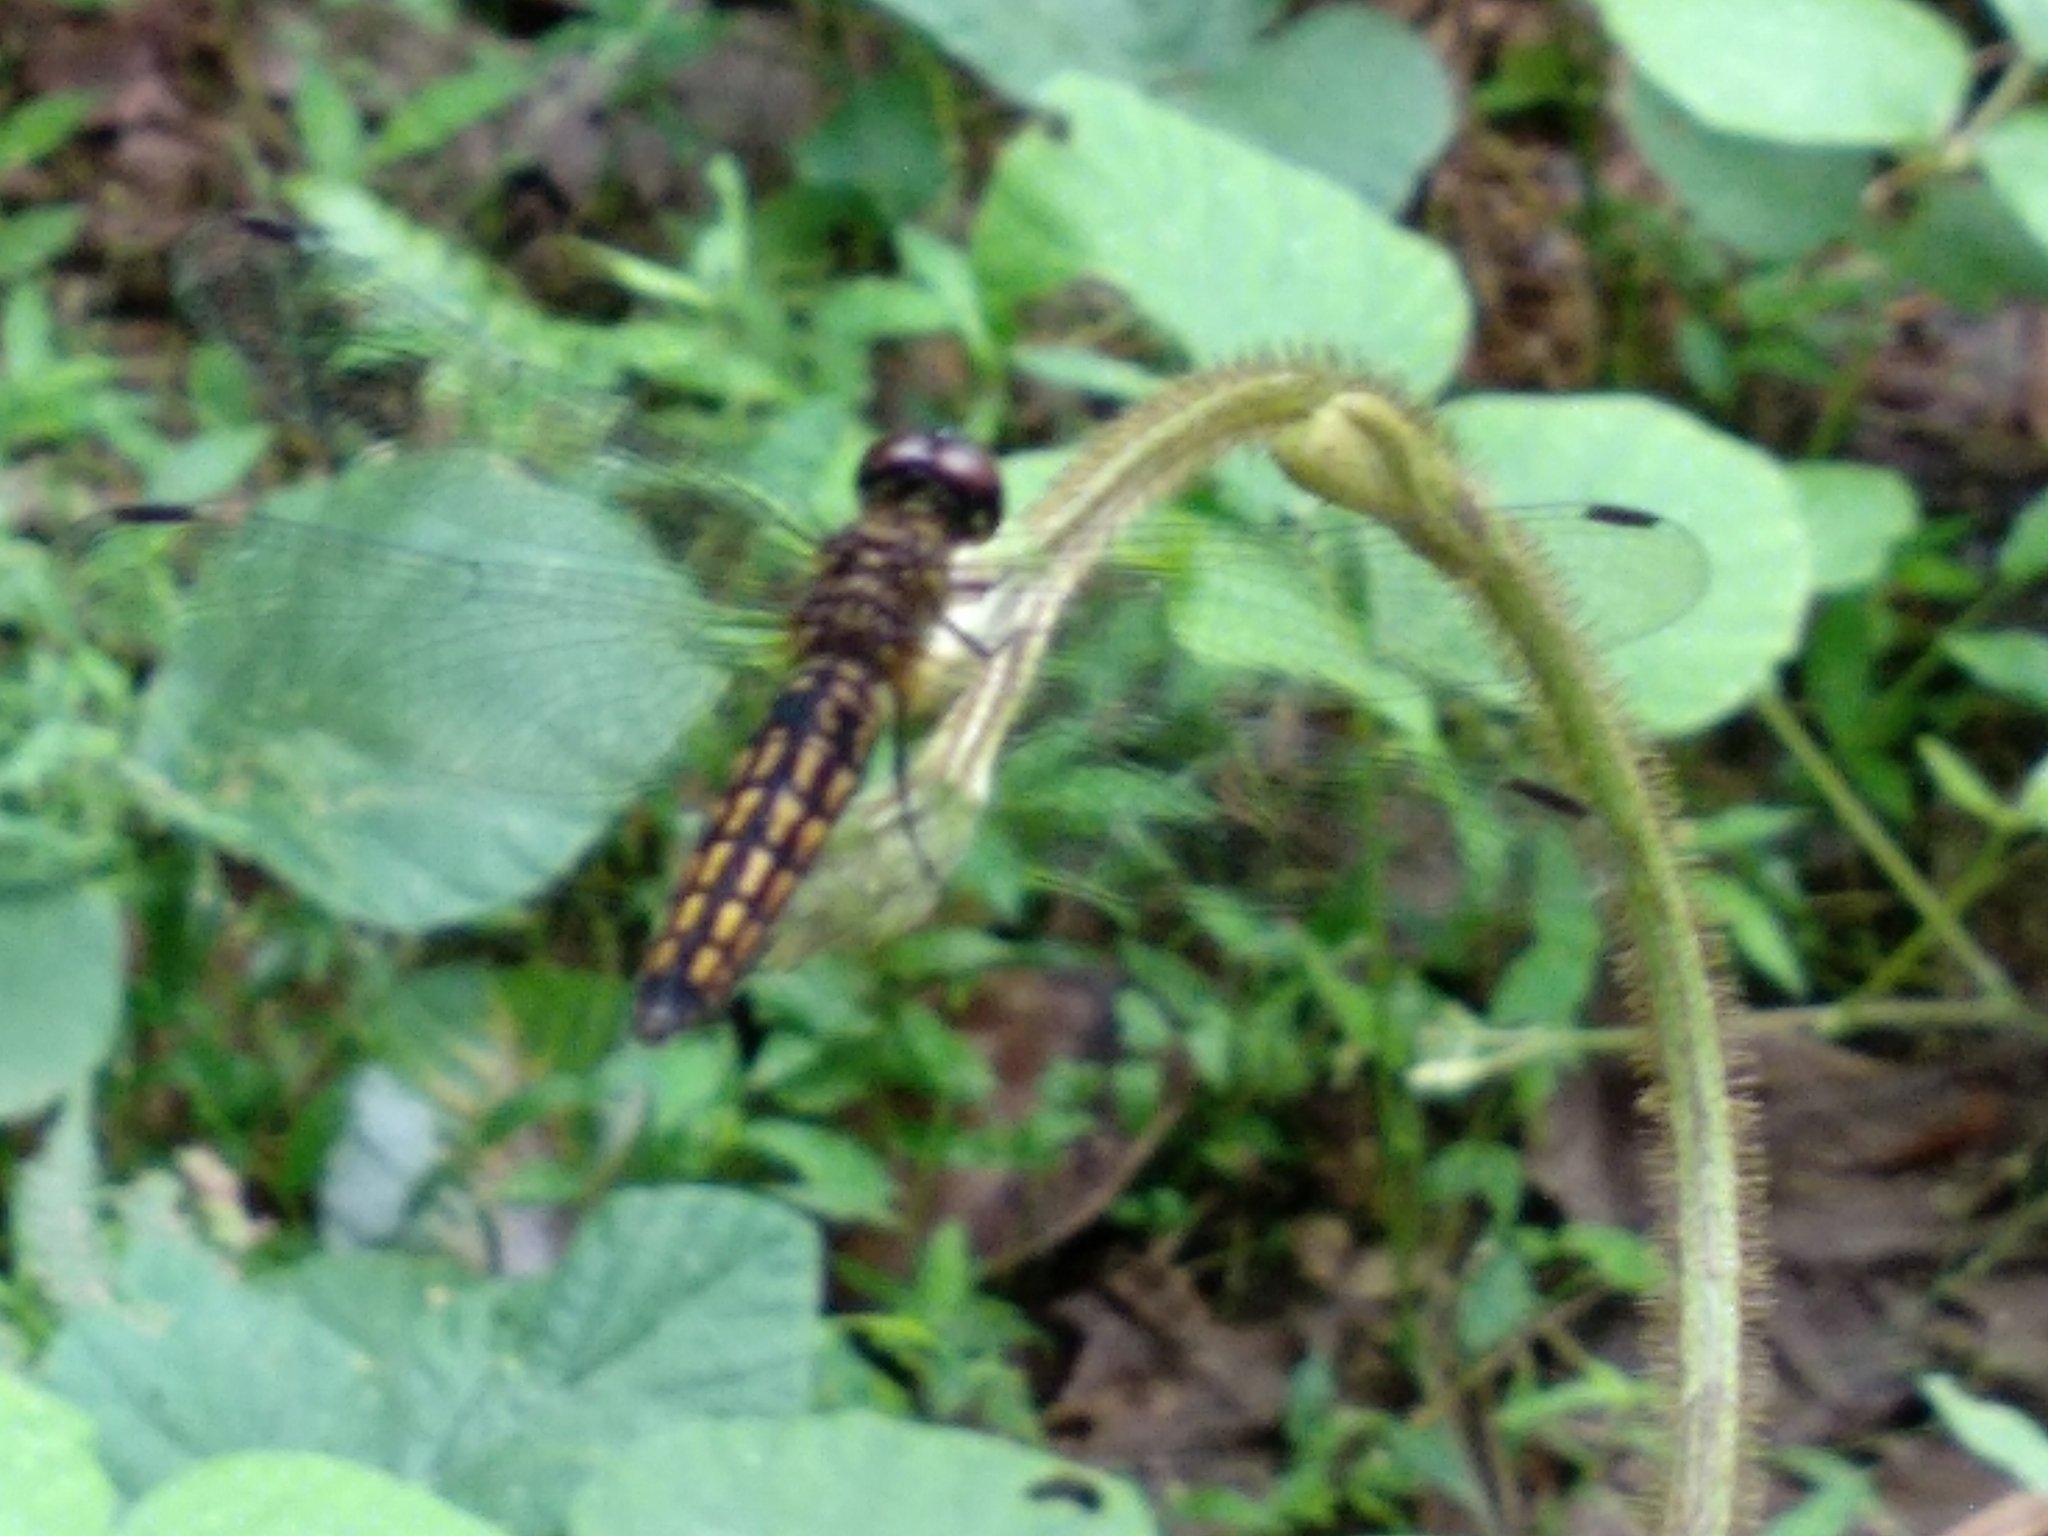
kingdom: Animalia
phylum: Arthropoda
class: Insecta
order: Odonata
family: Libellulidae
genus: Lyriothemis
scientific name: Lyriothemis acigastra
